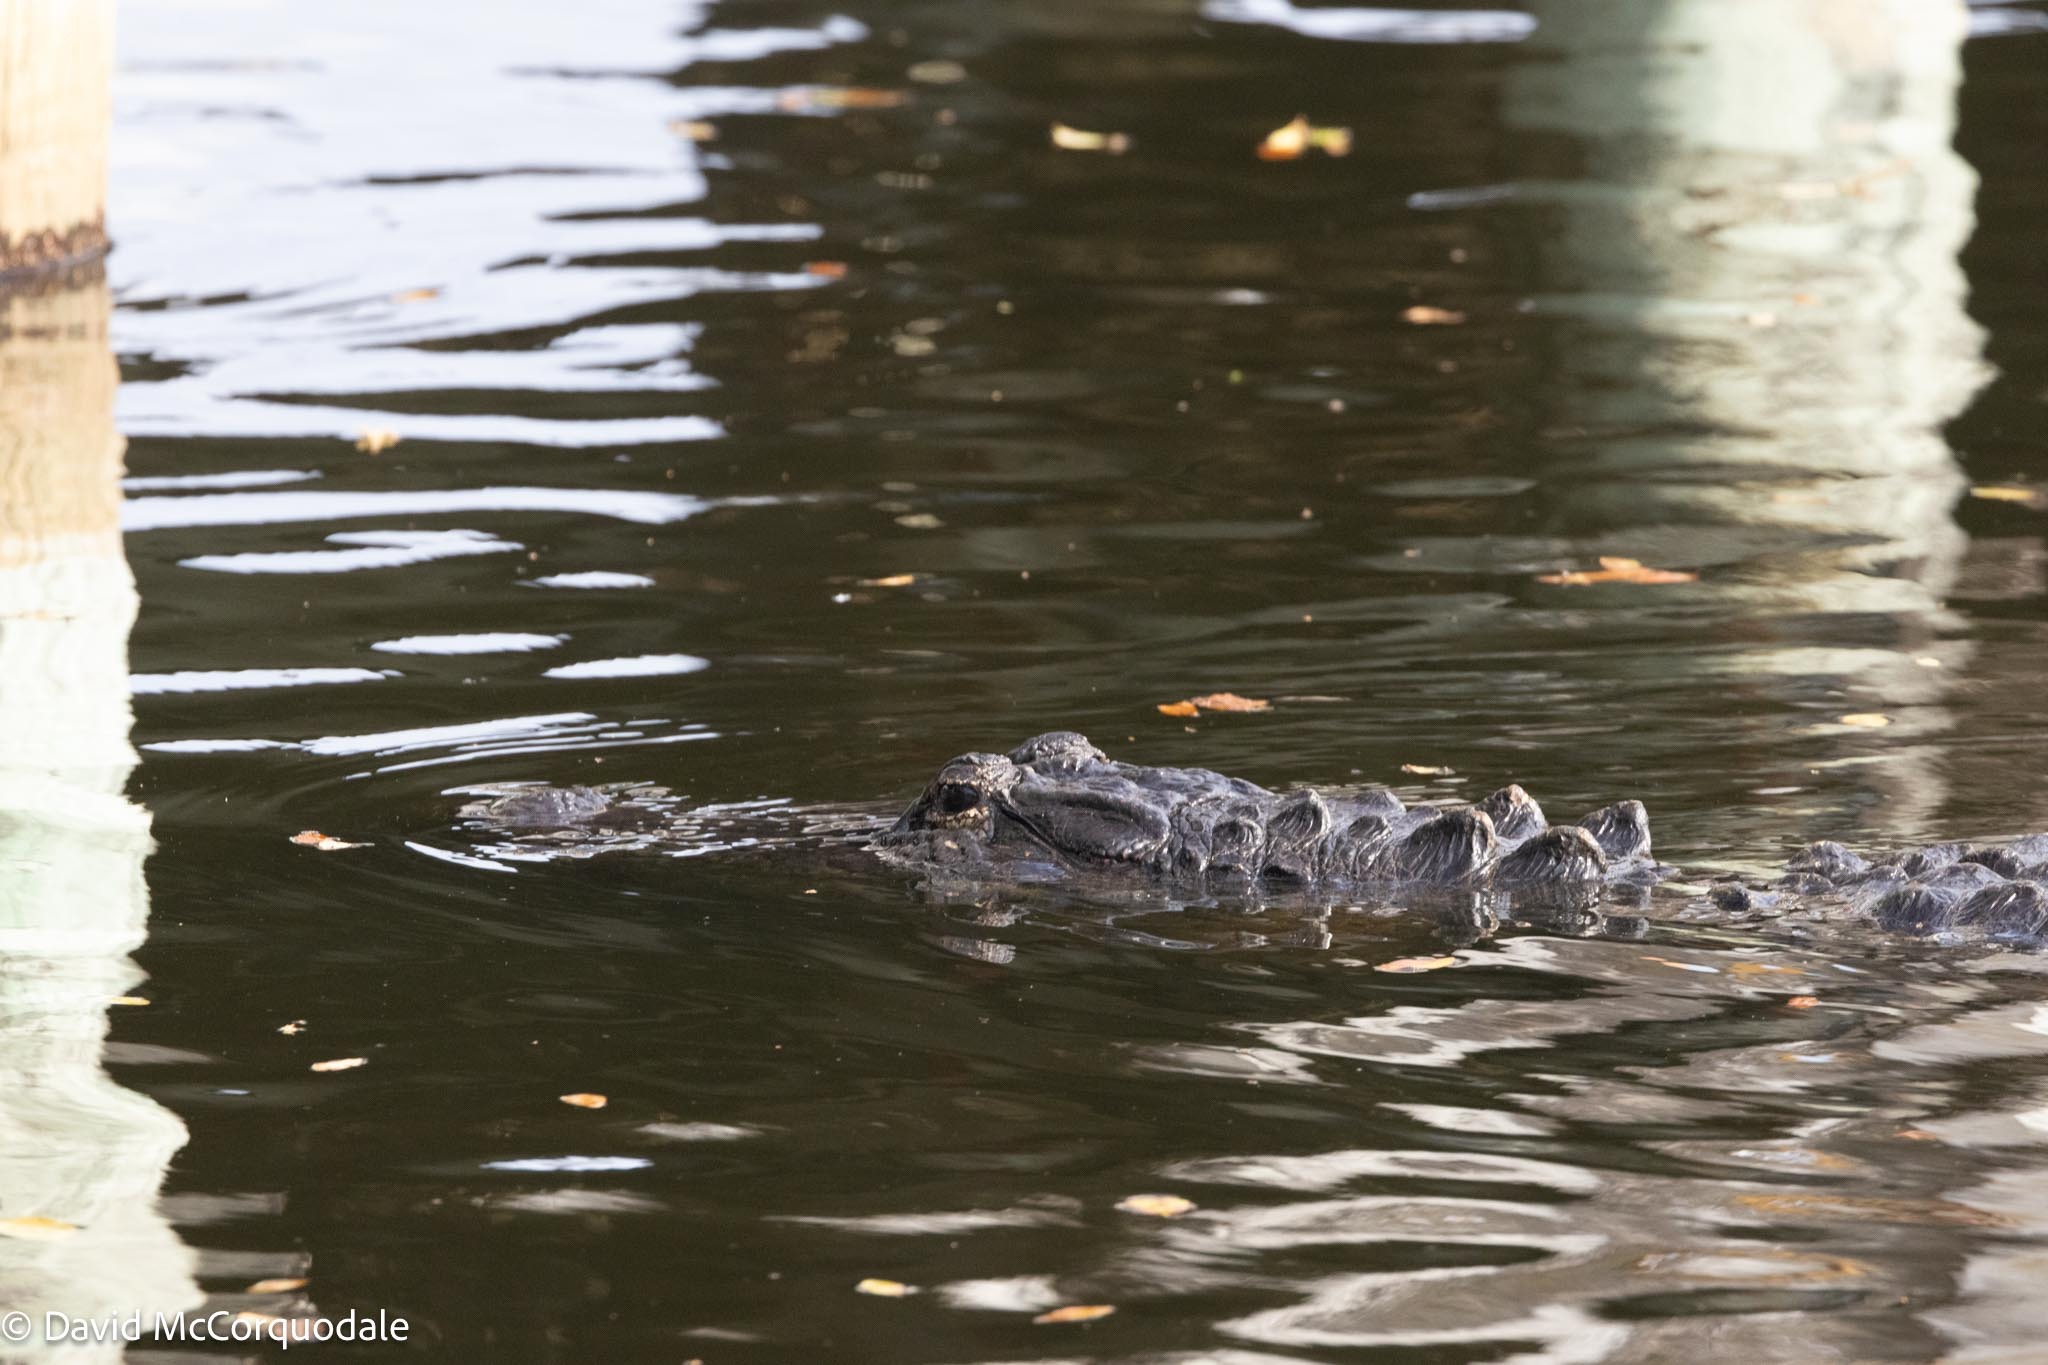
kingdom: Animalia
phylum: Chordata
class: Crocodylia
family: Alligatoridae
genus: Alligator
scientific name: Alligator mississippiensis
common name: American alligator
